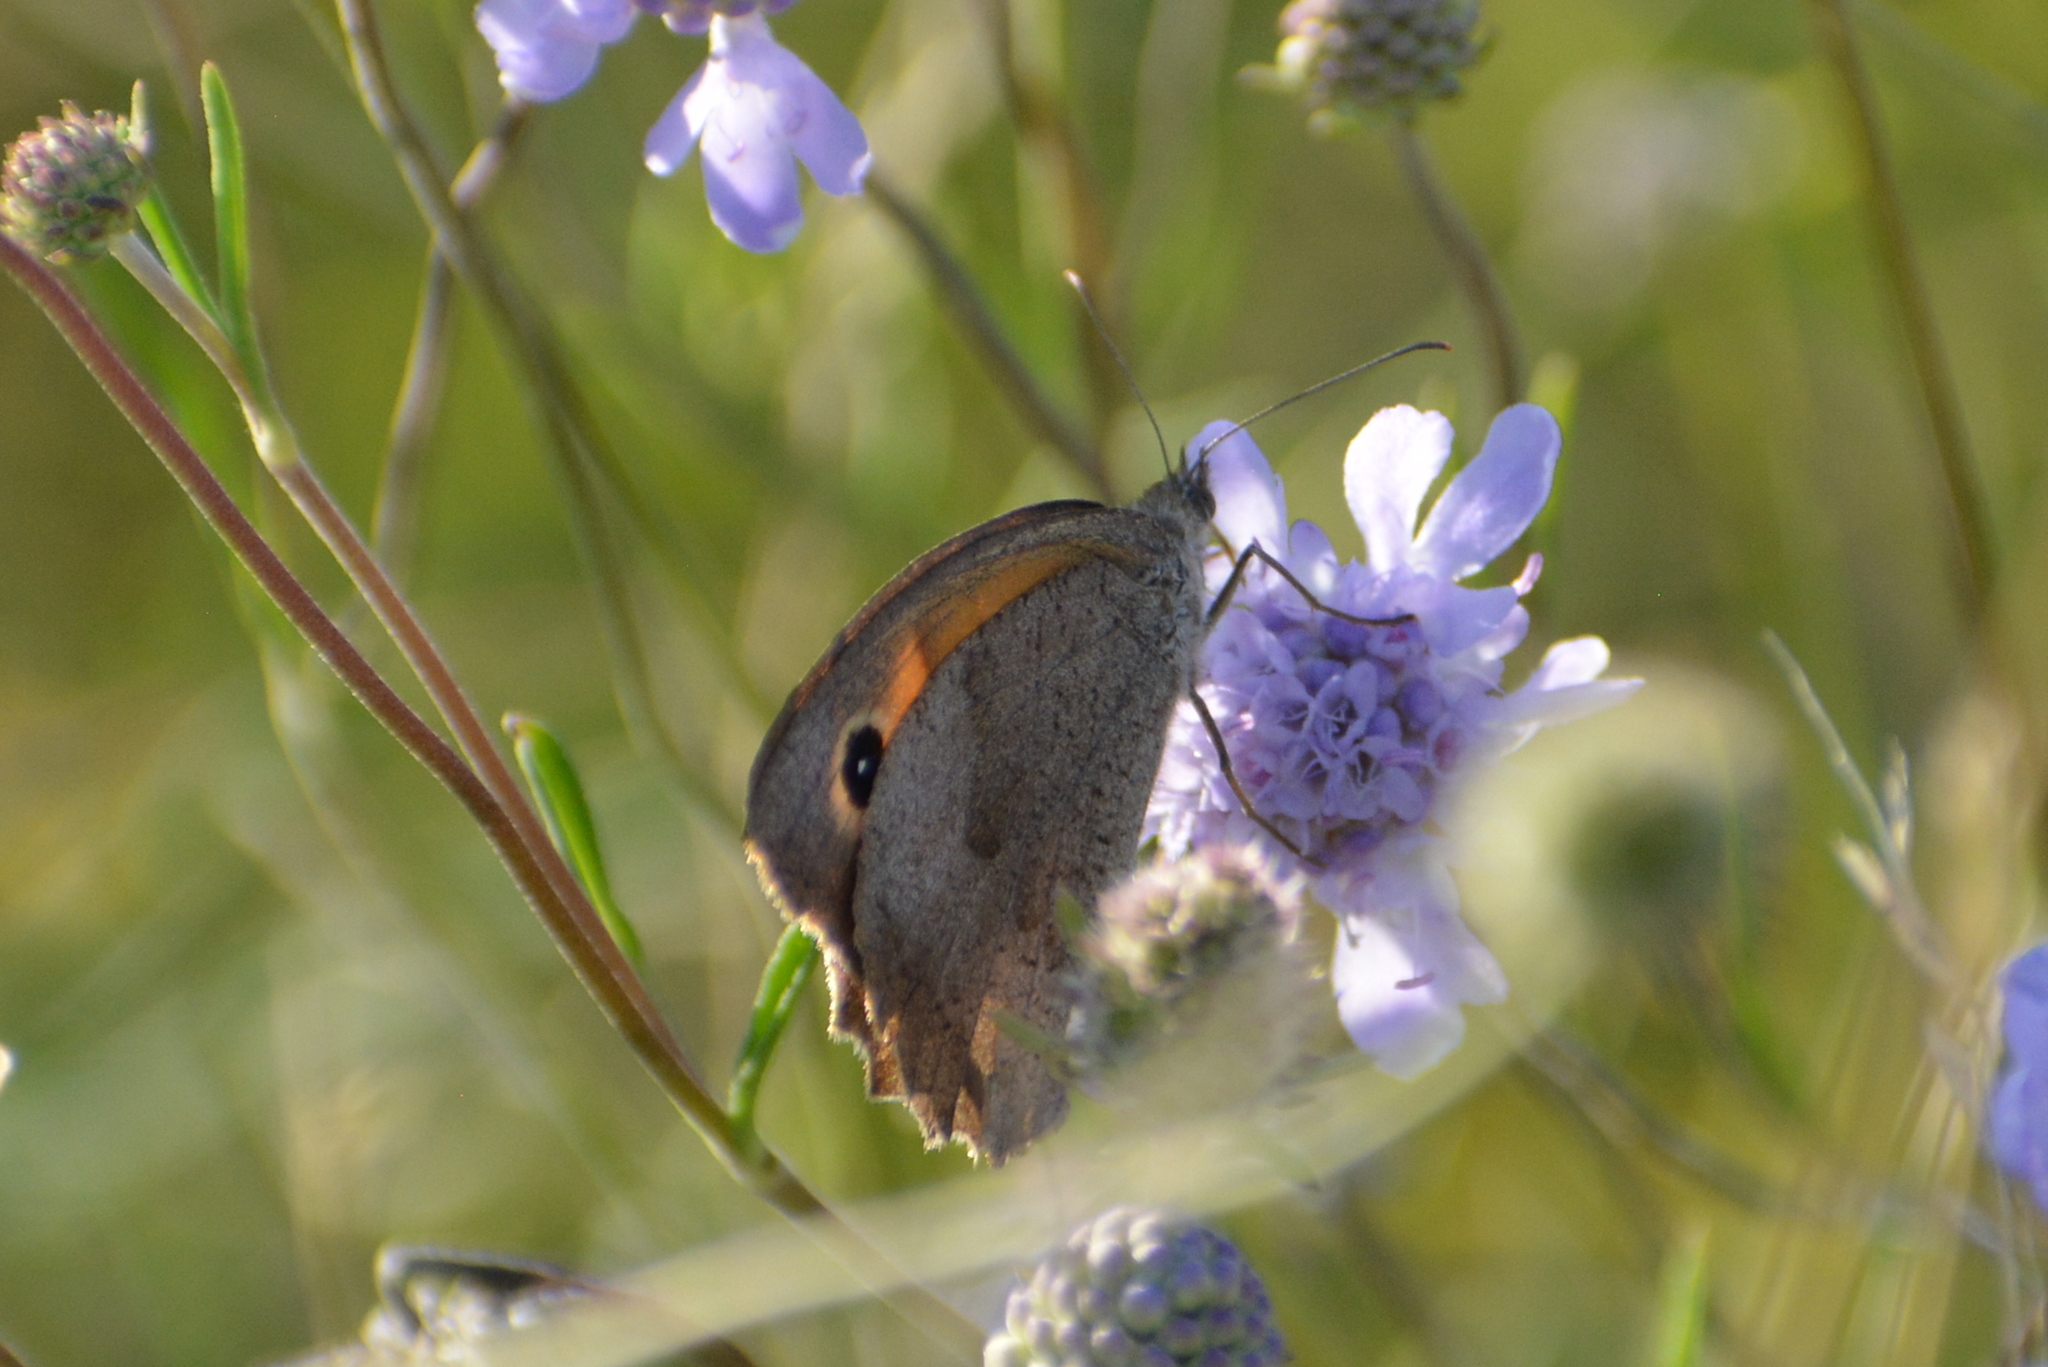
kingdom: Animalia
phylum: Arthropoda
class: Insecta
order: Lepidoptera
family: Nymphalidae
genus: Maniola
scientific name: Maniola jurtina
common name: Meadow brown
